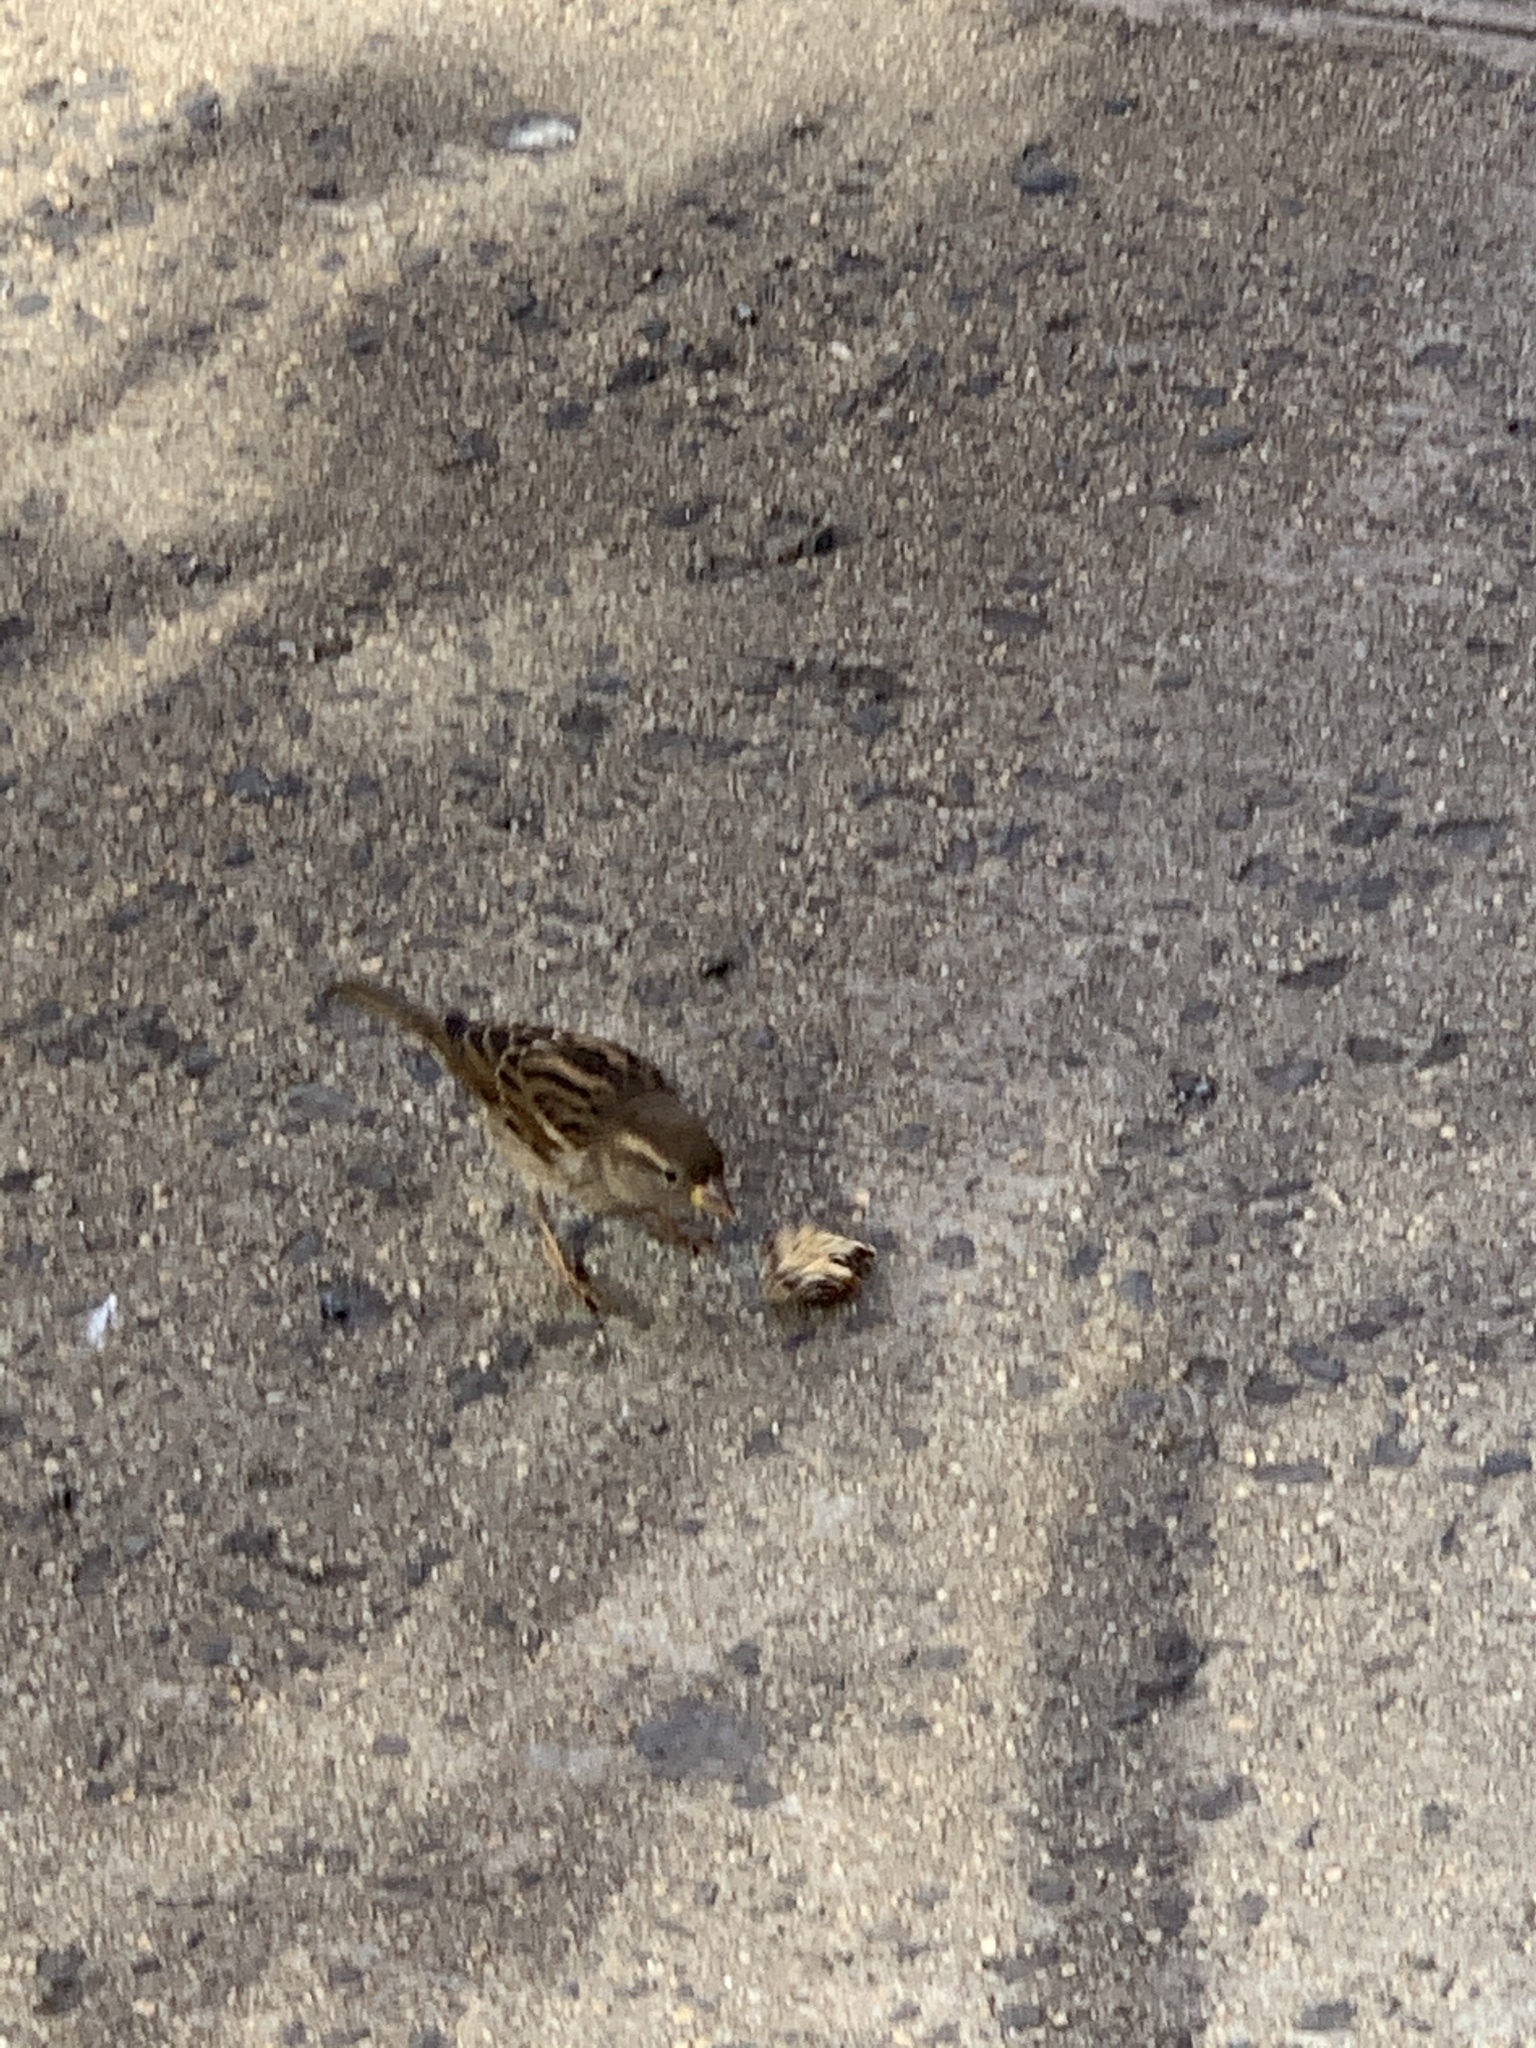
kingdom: Animalia
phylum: Chordata
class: Aves
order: Passeriformes
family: Passeridae
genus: Passer
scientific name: Passer domesticus
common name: House sparrow
